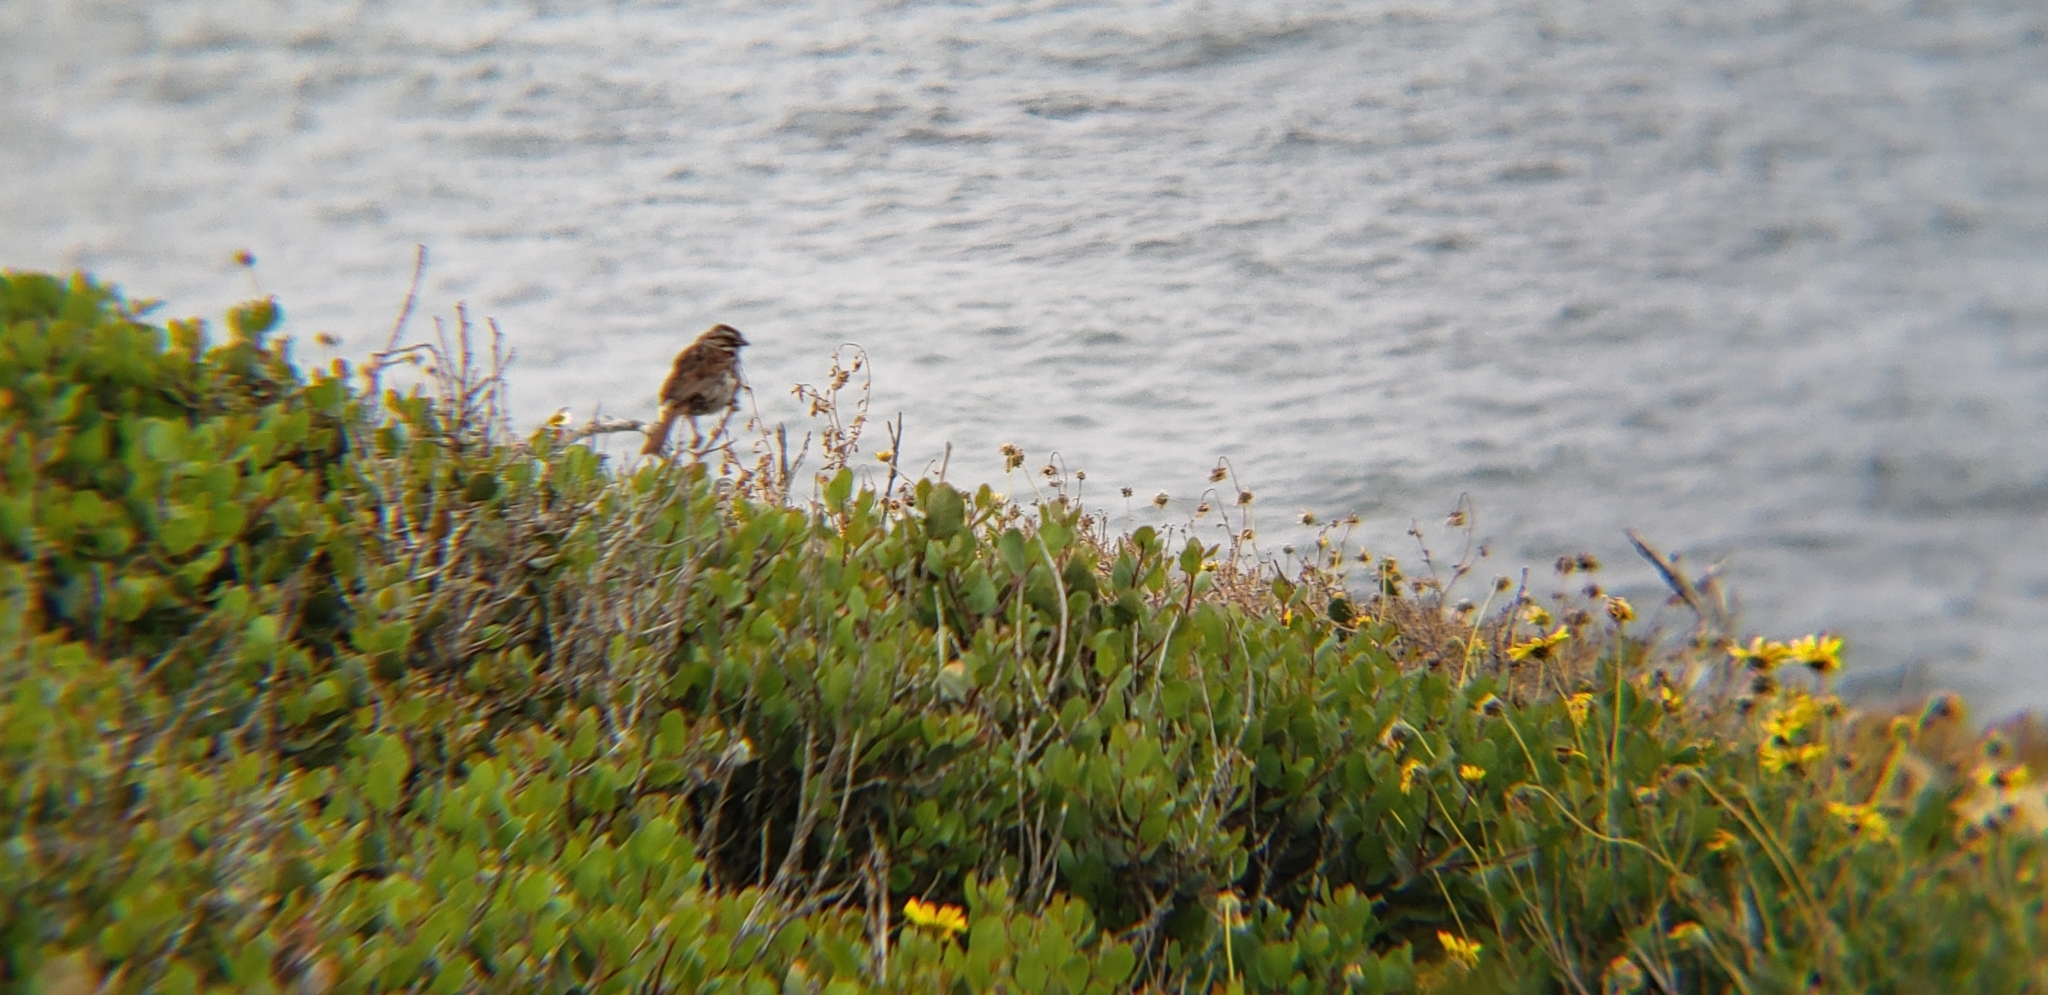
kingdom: Animalia
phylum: Chordata
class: Aves
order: Passeriformes
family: Passerellidae
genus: Melospiza
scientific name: Melospiza melodia
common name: Song sparrow
